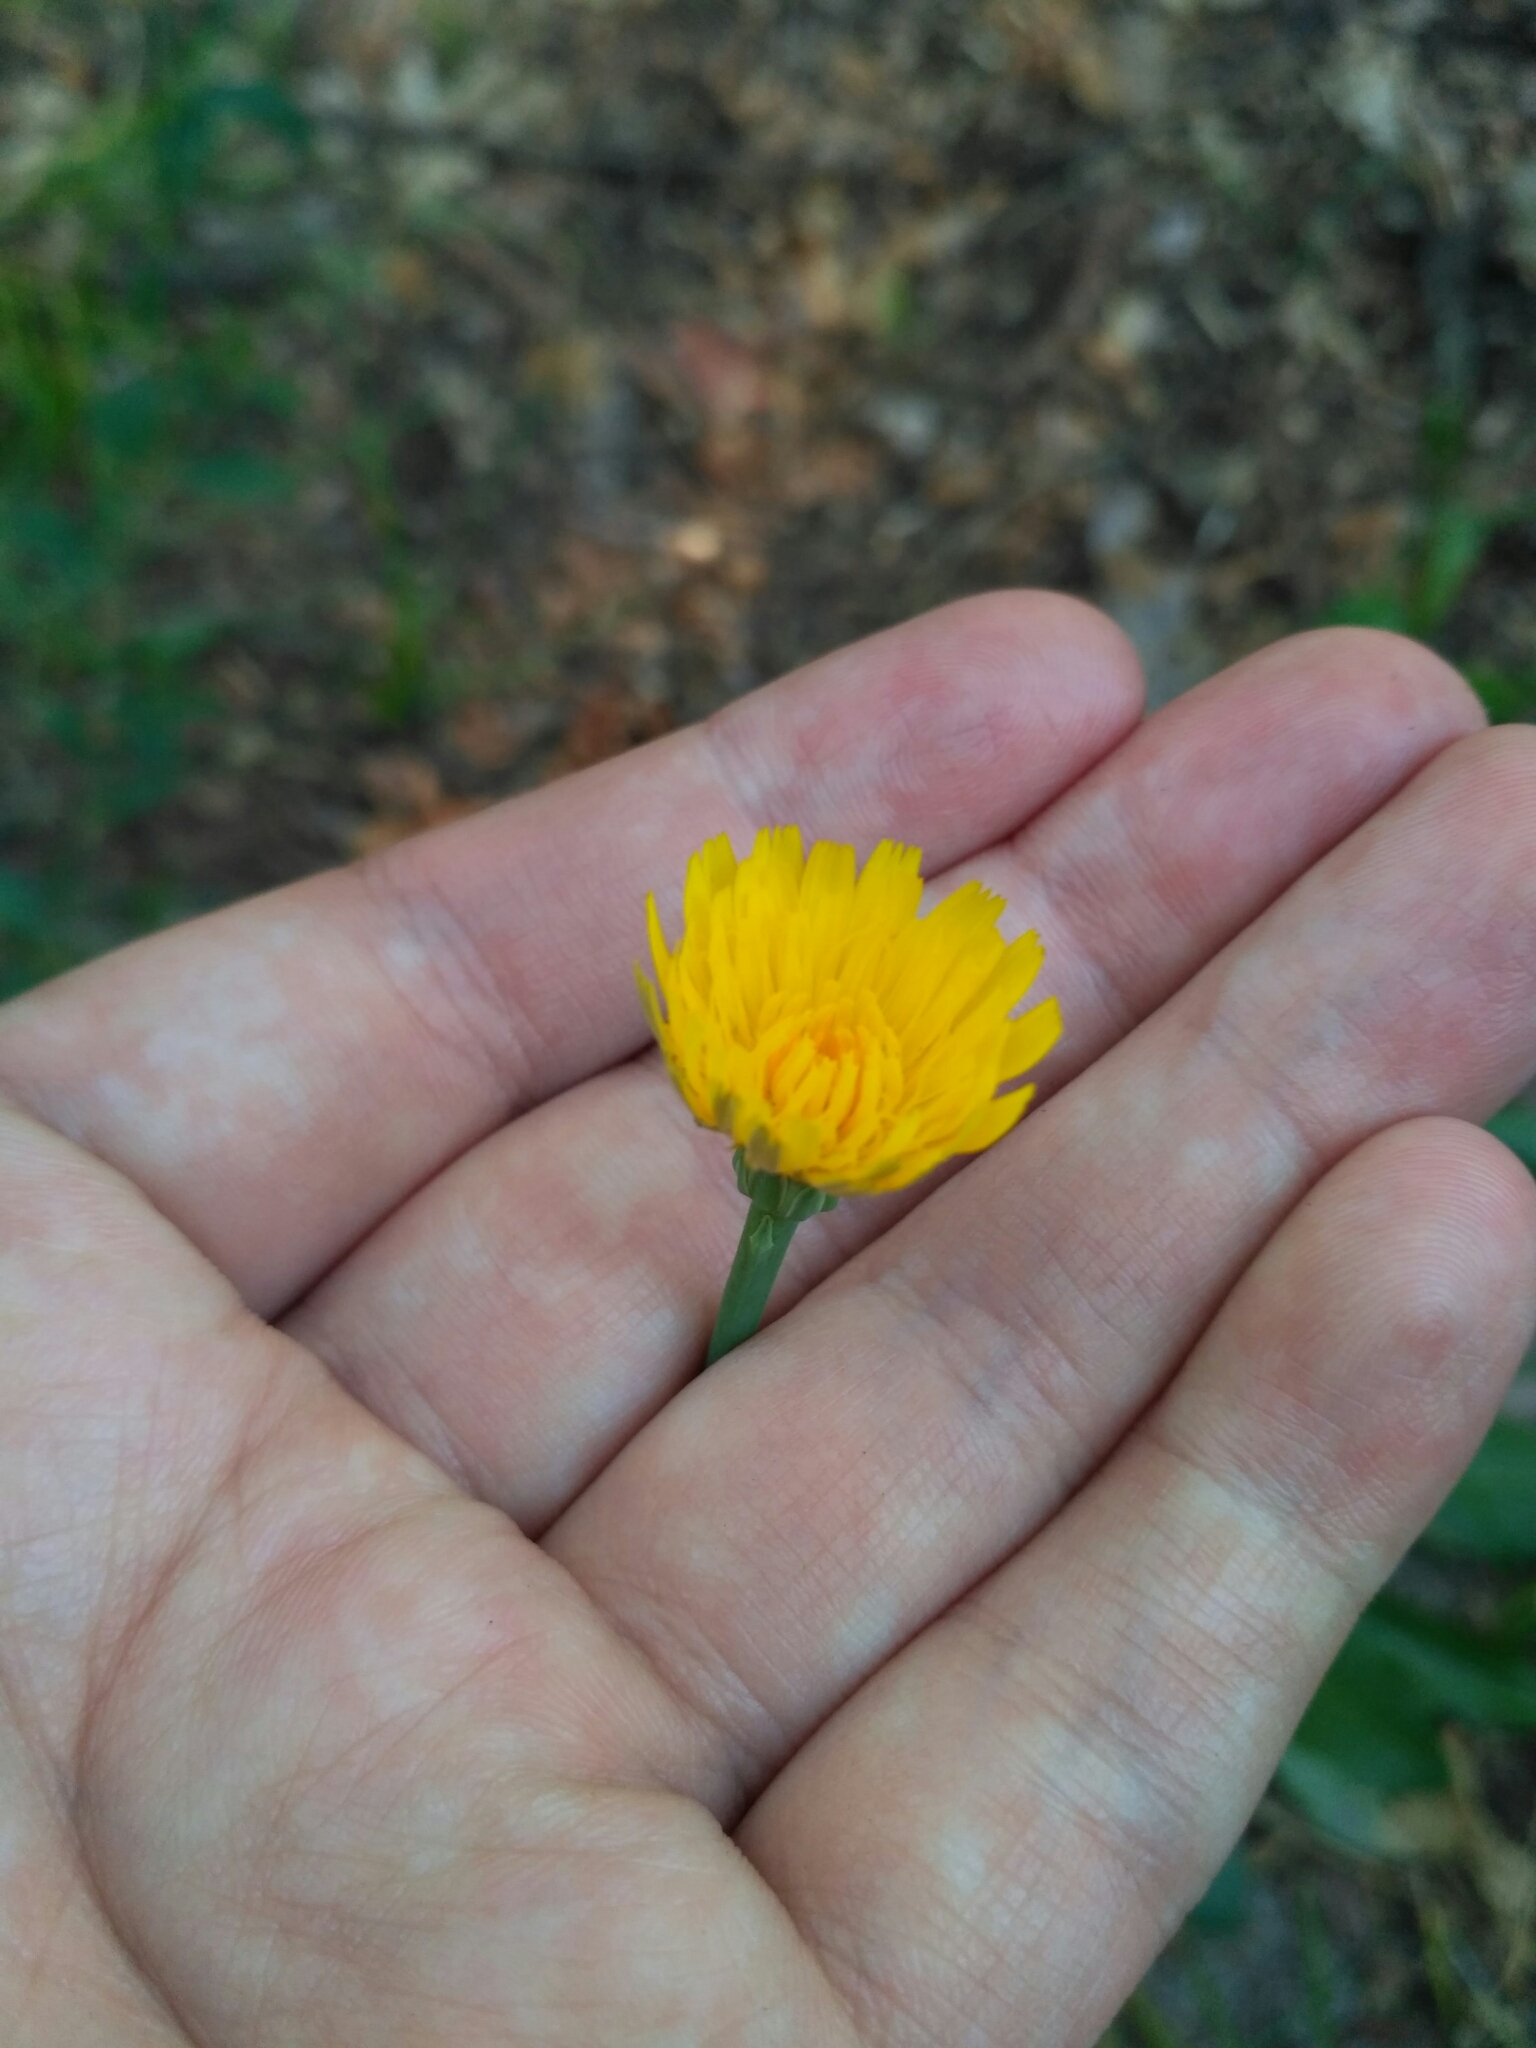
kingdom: Plantae
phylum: Tracheophyta
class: Magnoliopsida
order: Asterales
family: Asteraceae
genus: Hypochaeris
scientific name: Hypochaeris radicata
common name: Flatweed
